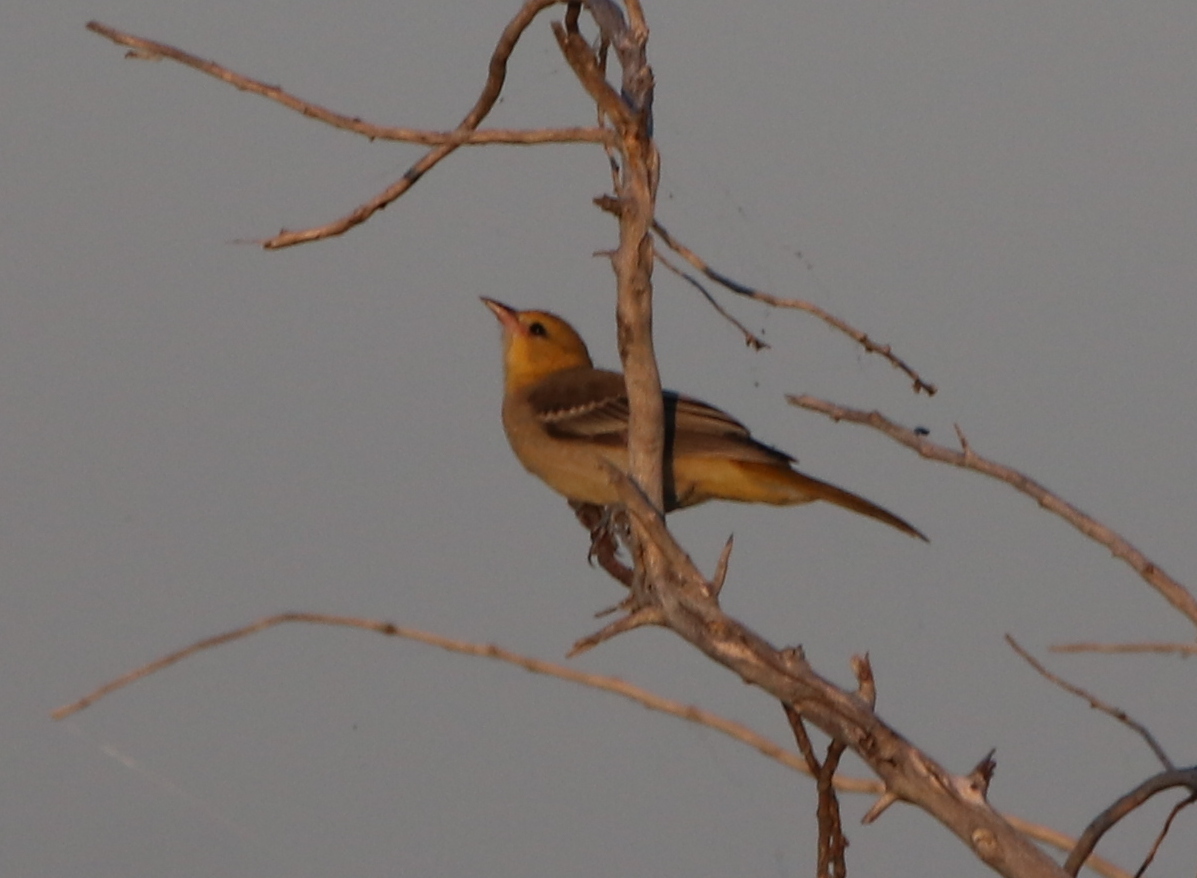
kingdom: Animalia
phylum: Chordata
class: Aves
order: Passeriformes
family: Icteridae
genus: Icterus
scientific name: Icterus spurius
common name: Orchard oriole
